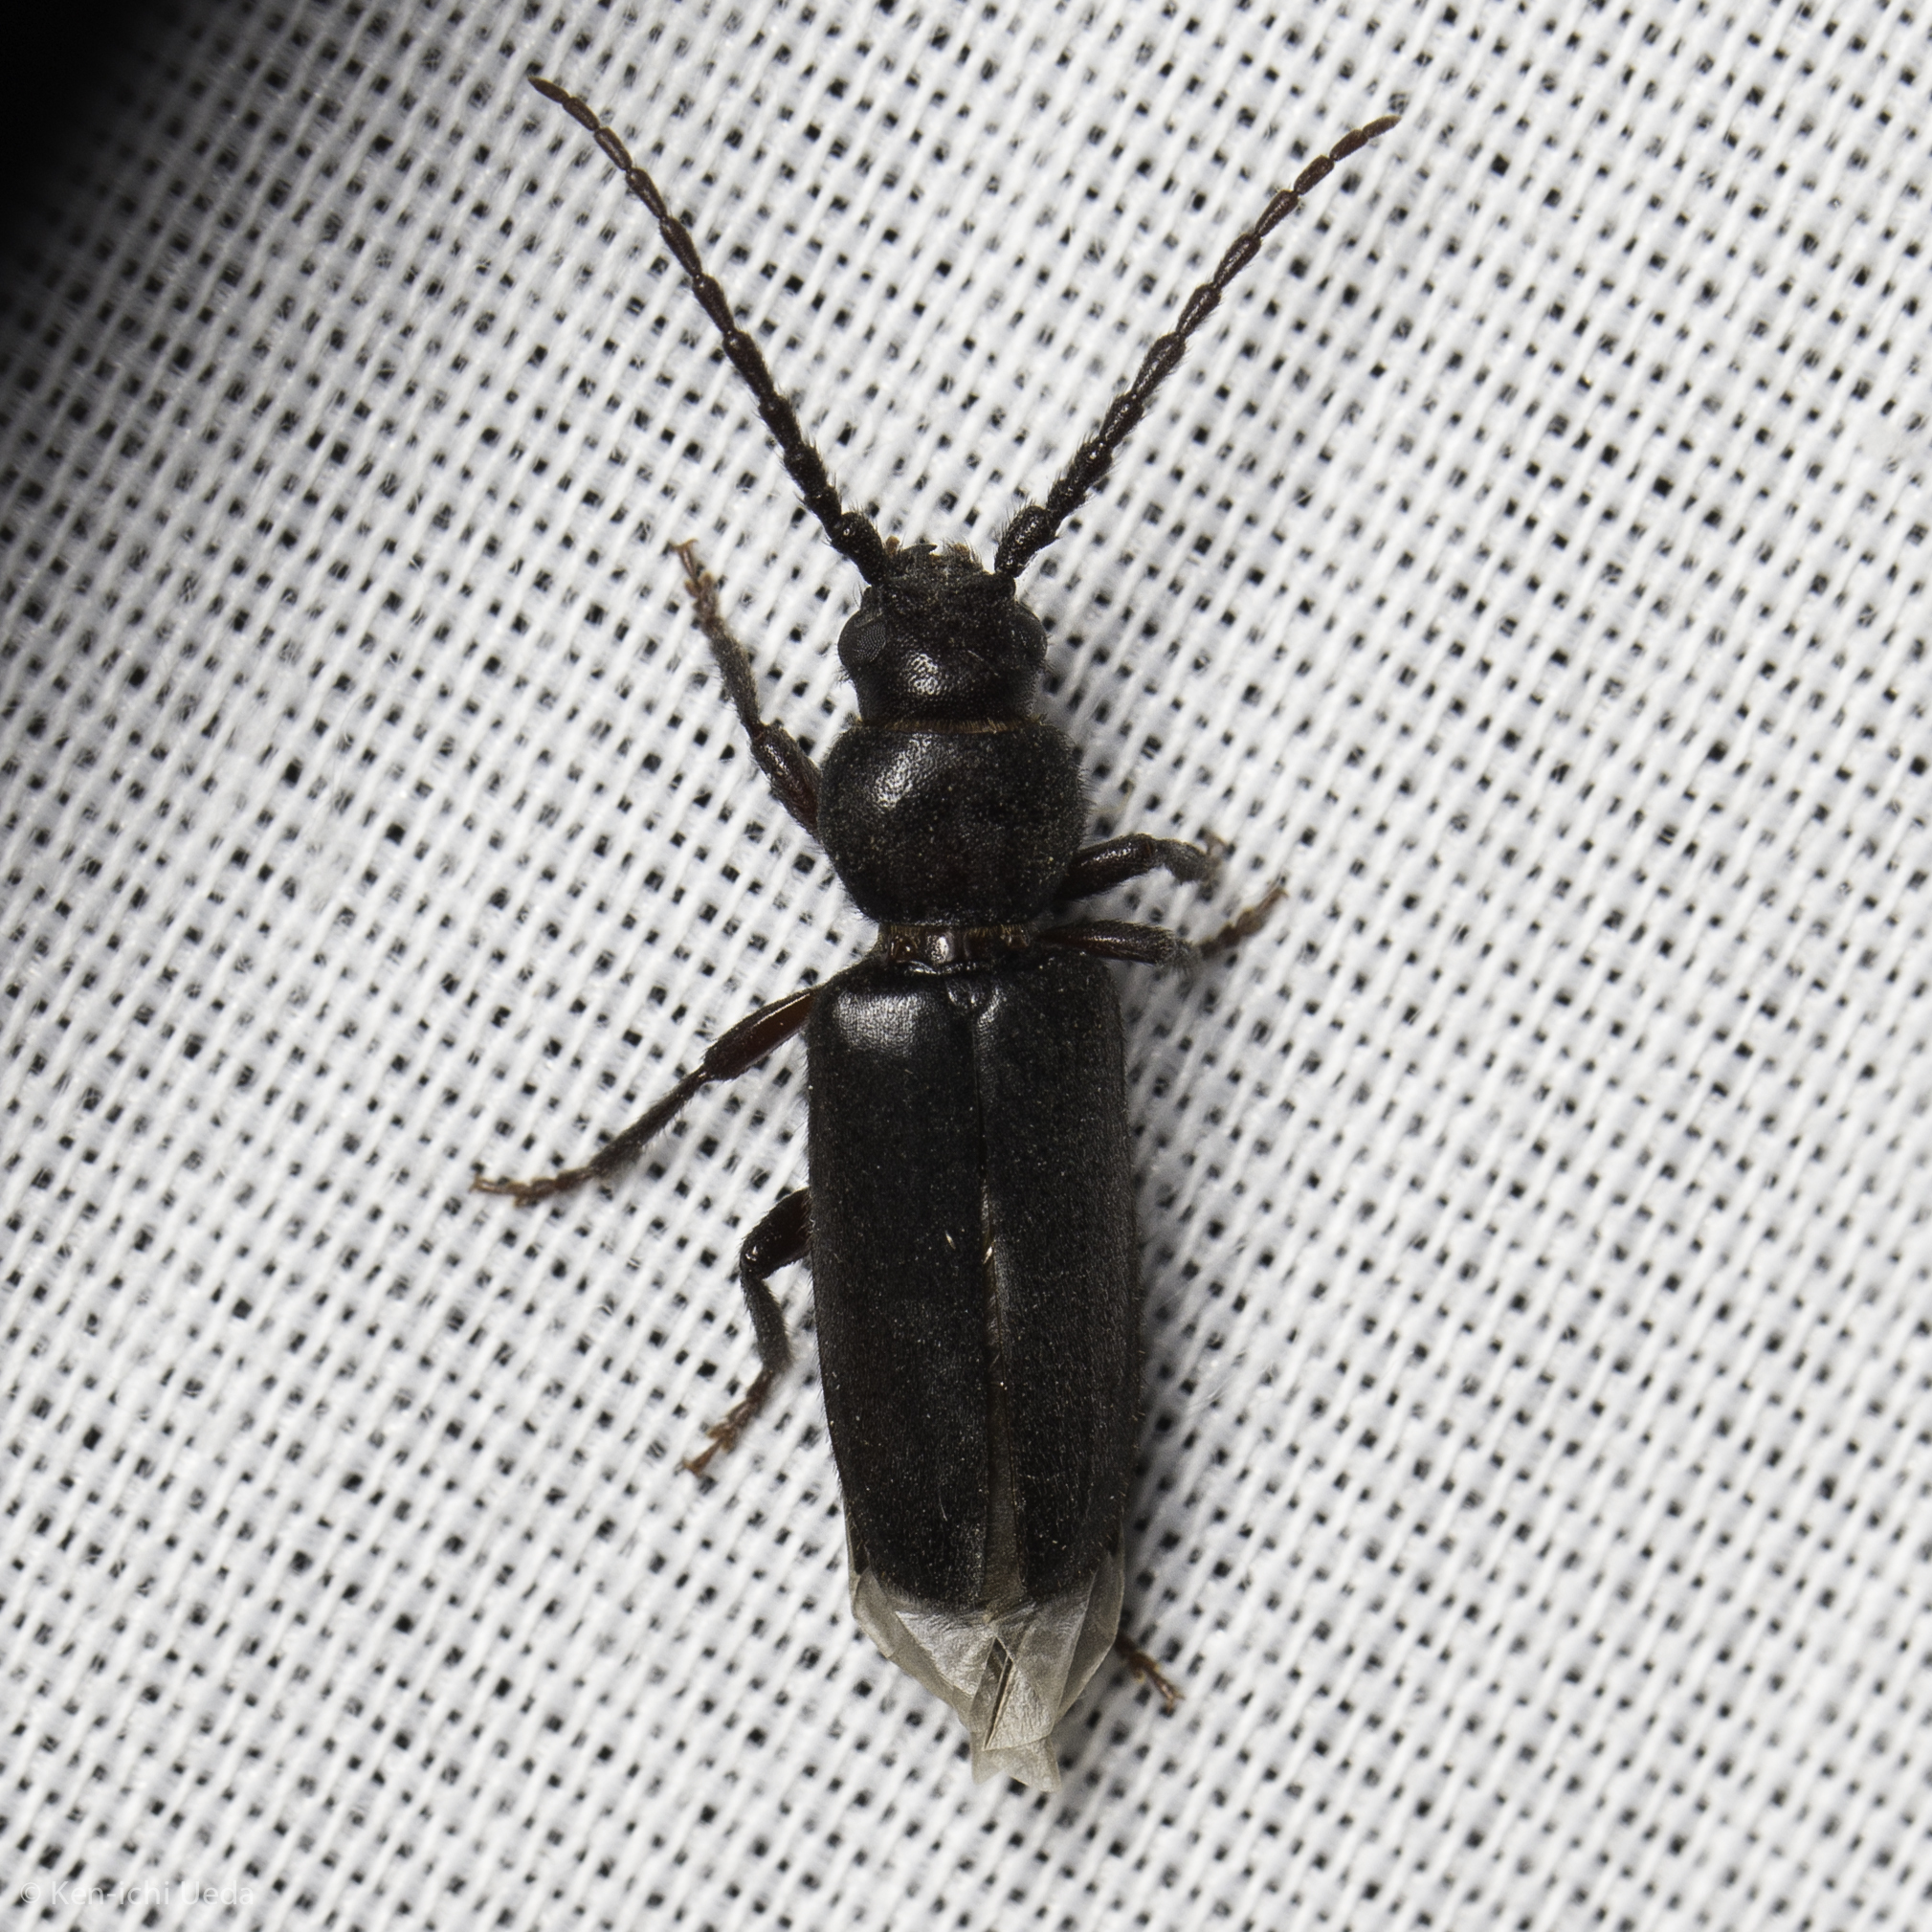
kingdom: Animalia
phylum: Arthropoda
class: Insecta
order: Coleoptera
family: Cerambycidae
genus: Asemum
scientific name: Asemum nitidum
